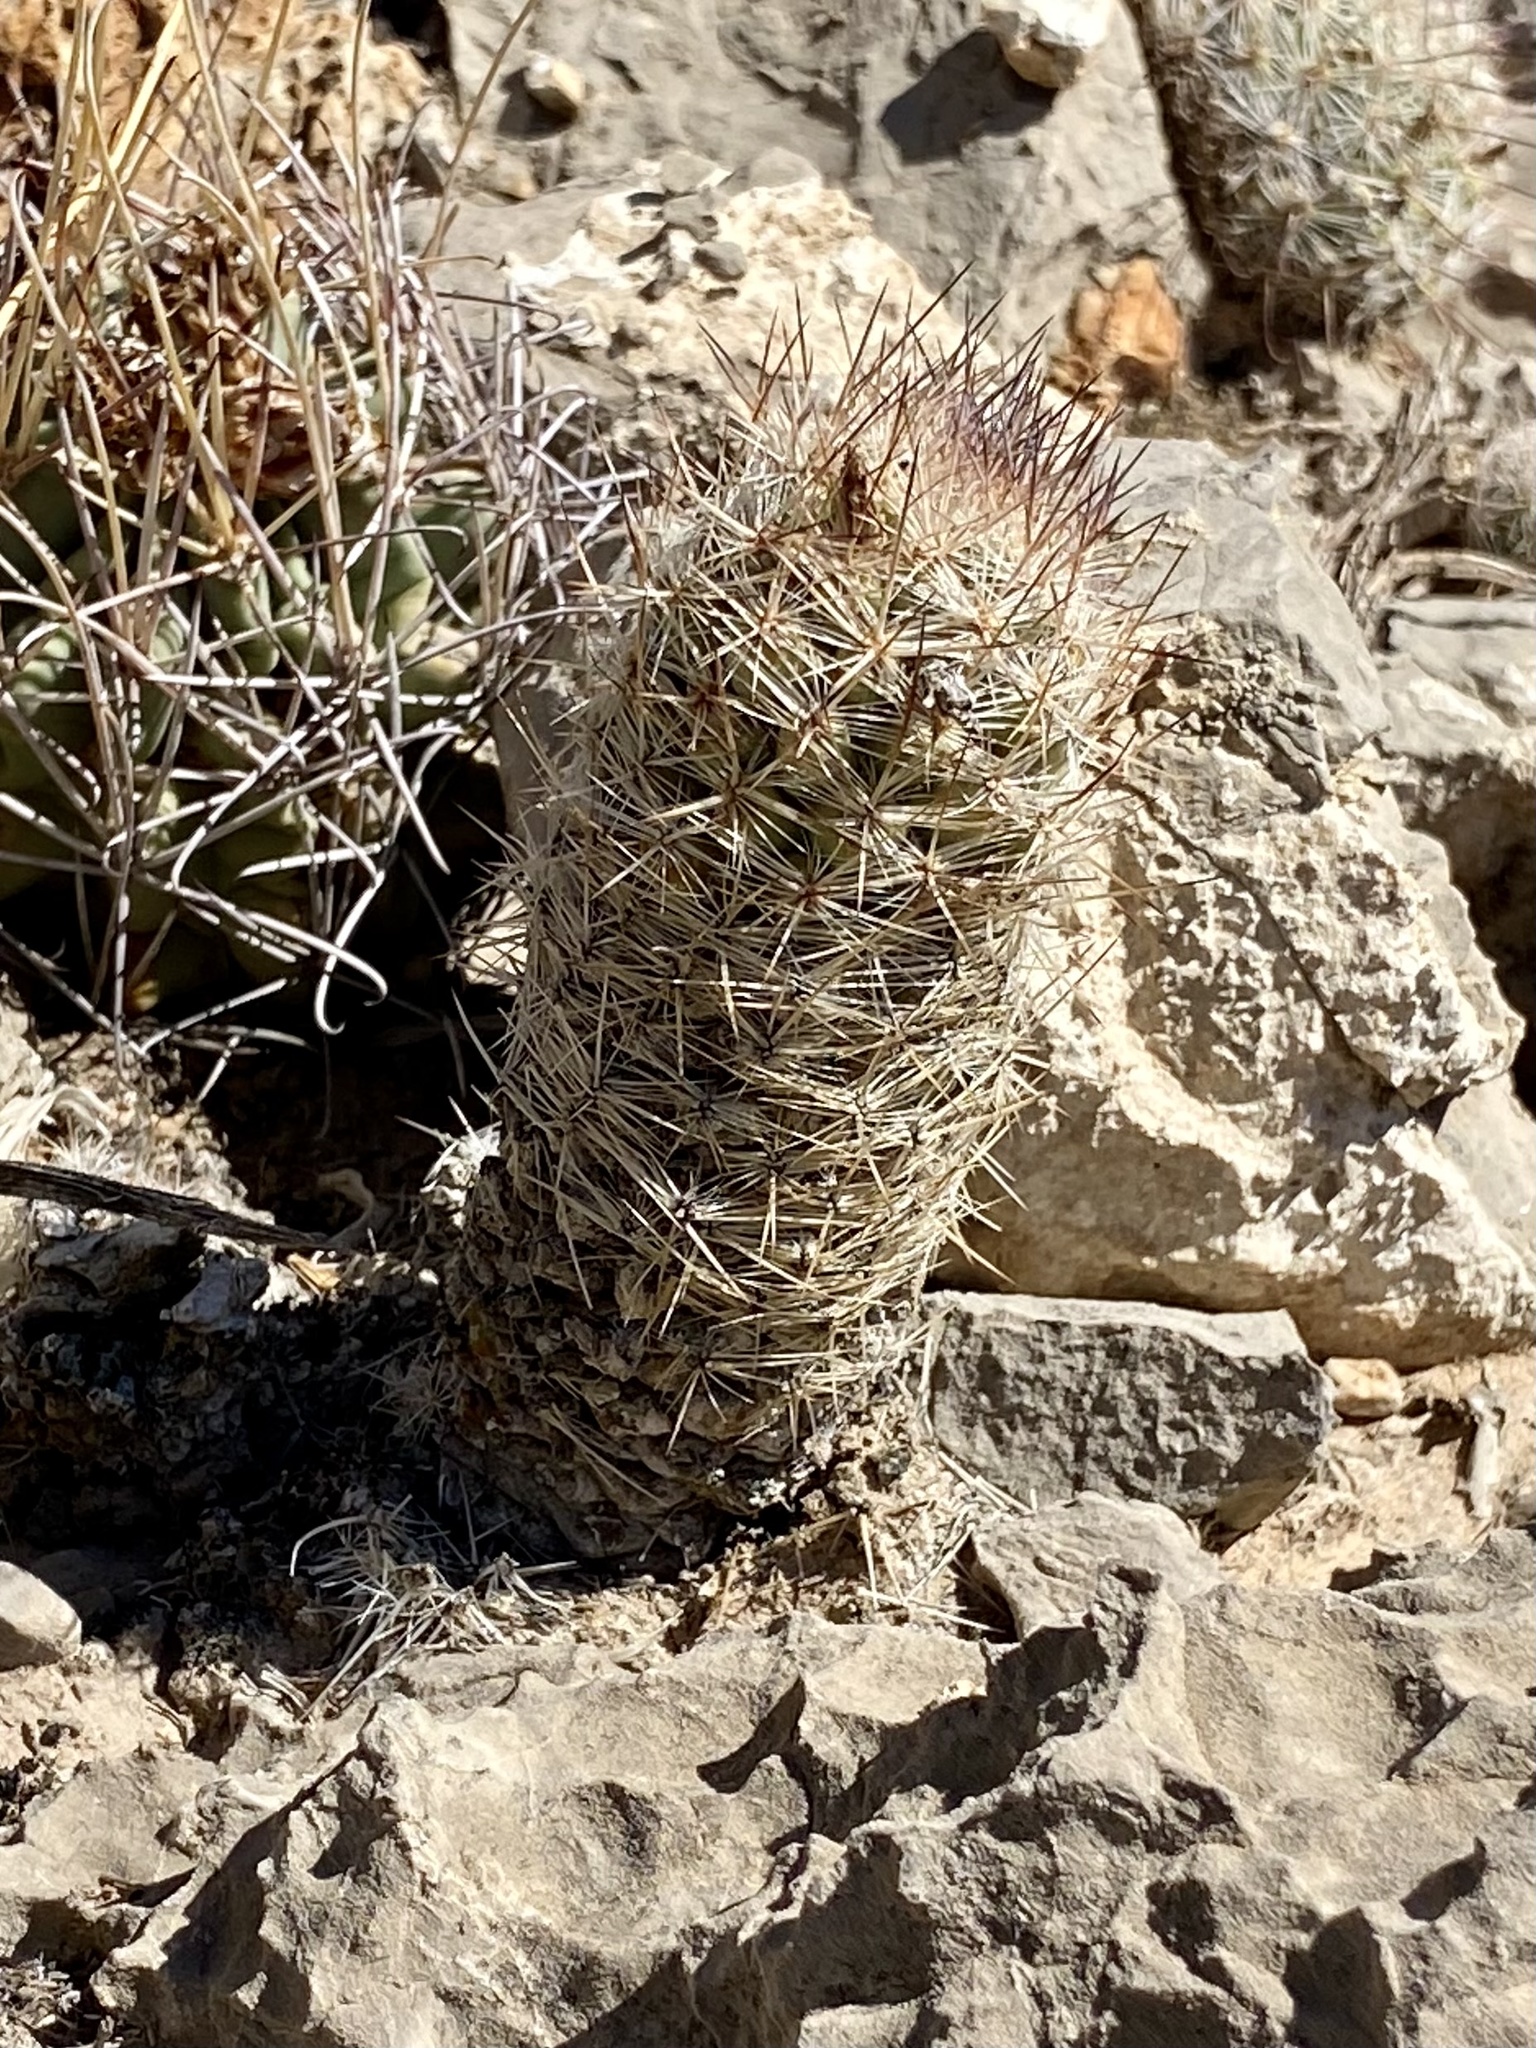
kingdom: Plantae
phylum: Tracheophyta
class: Magnoliopsida
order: Caryophyllales
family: Cactaceae
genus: Pelecyphora
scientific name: Pelecyphora tuberculosa
